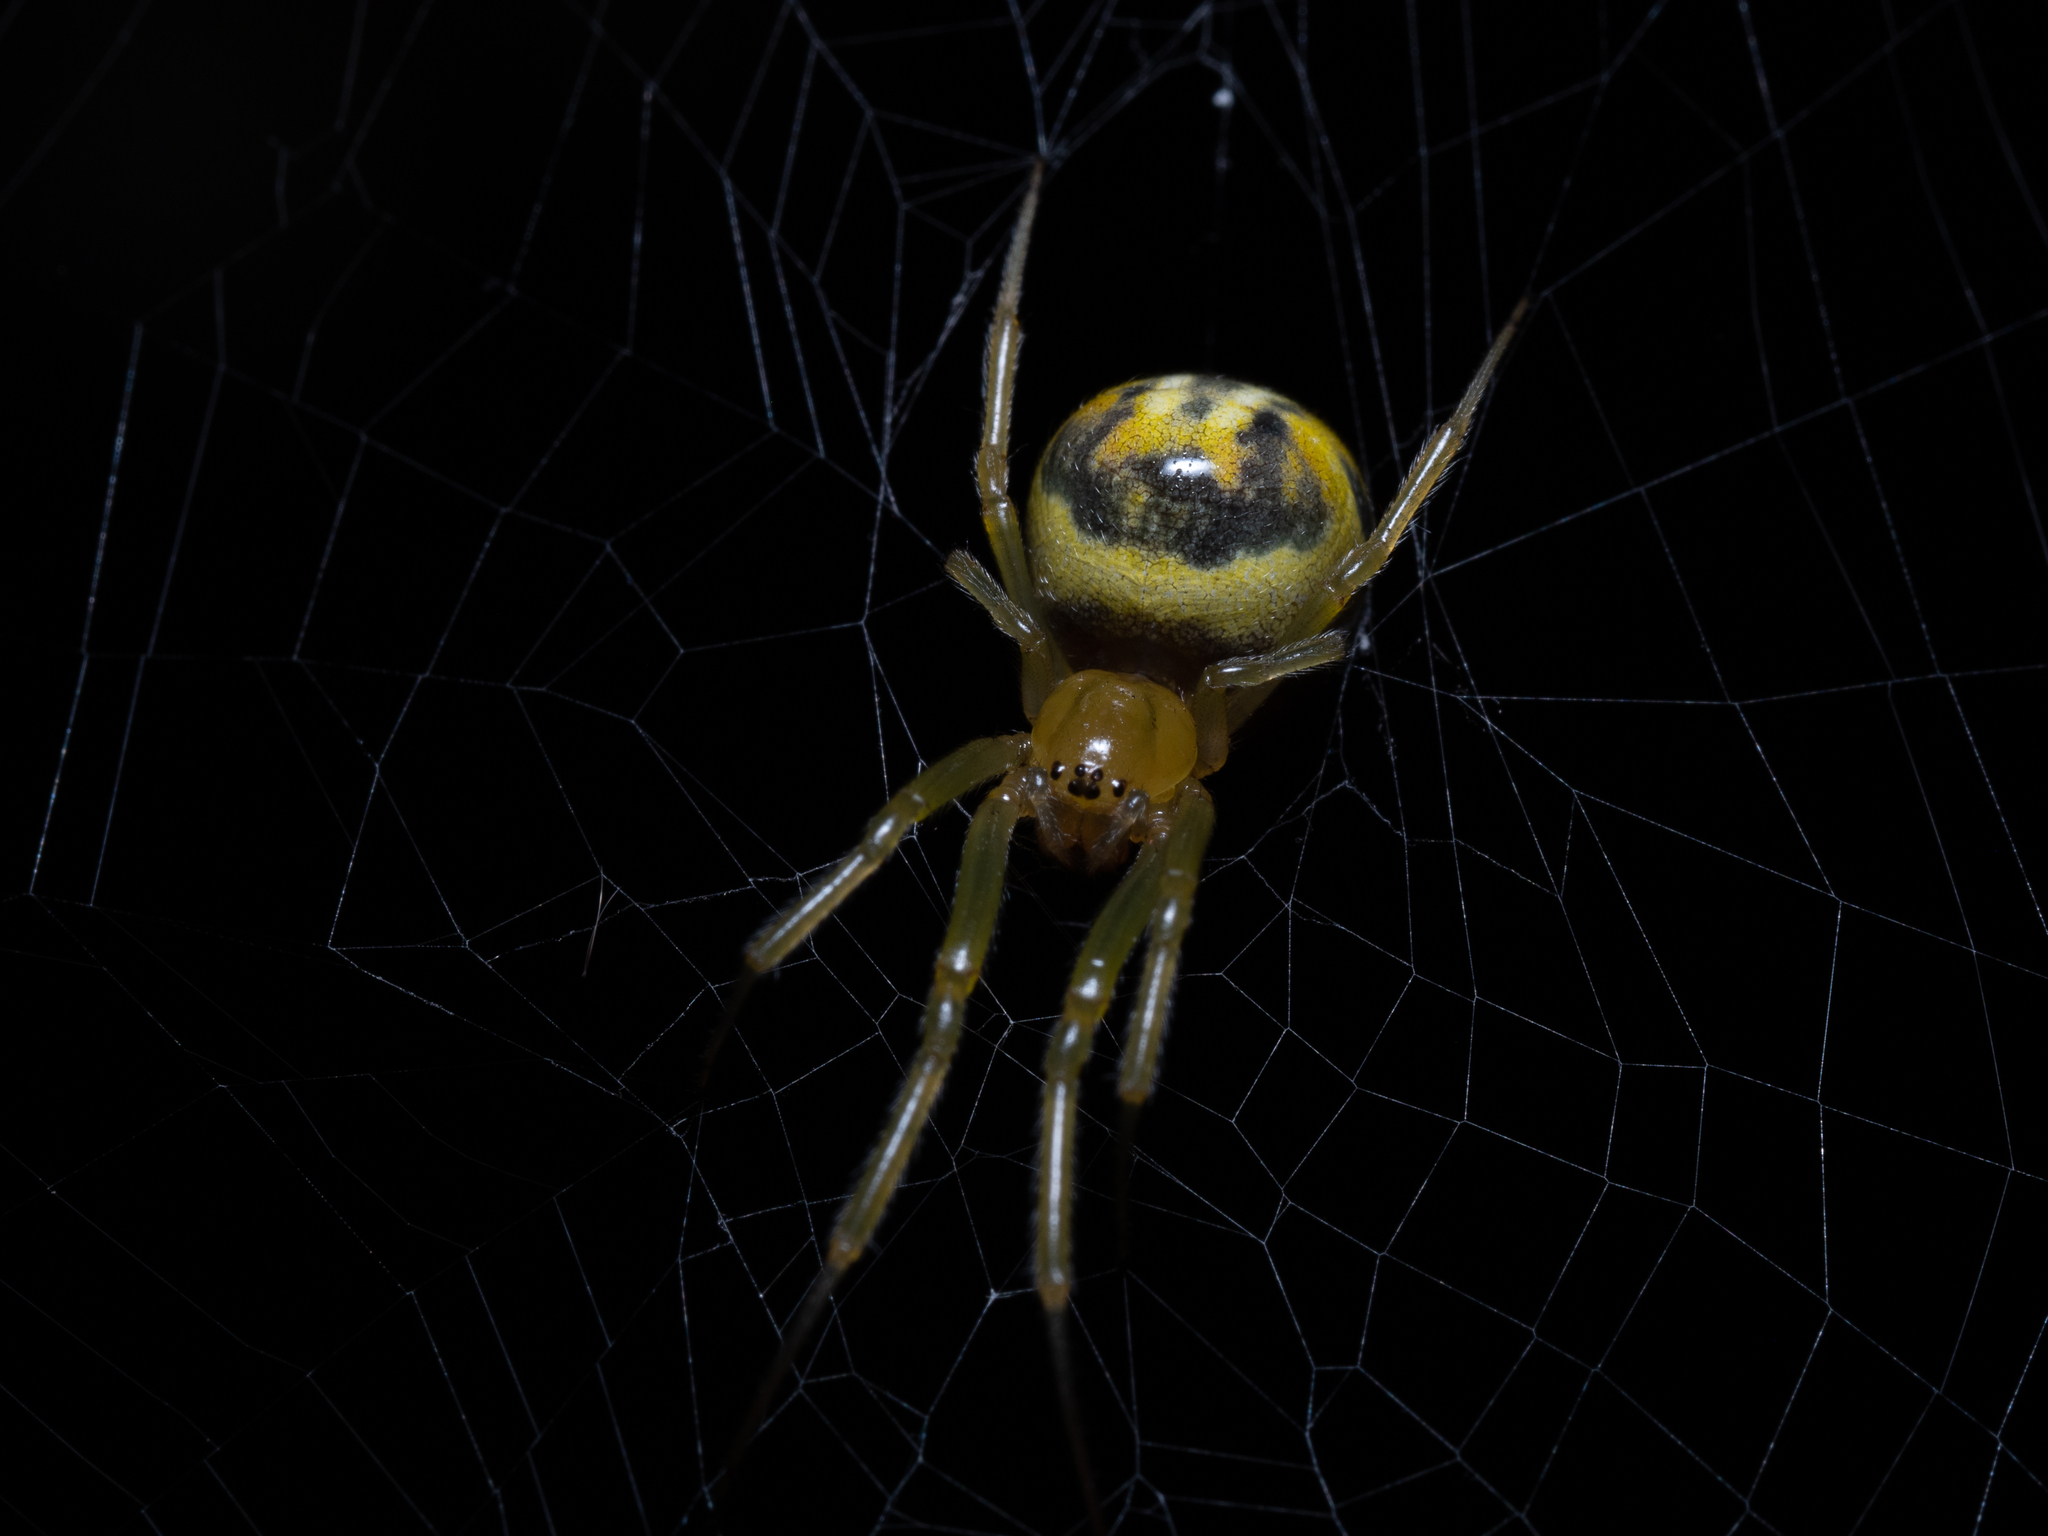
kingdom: Animalia
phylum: Arthropoda
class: Arachnida
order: Araneae
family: Araneidae
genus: Deliochus
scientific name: Deliochus zelivira
